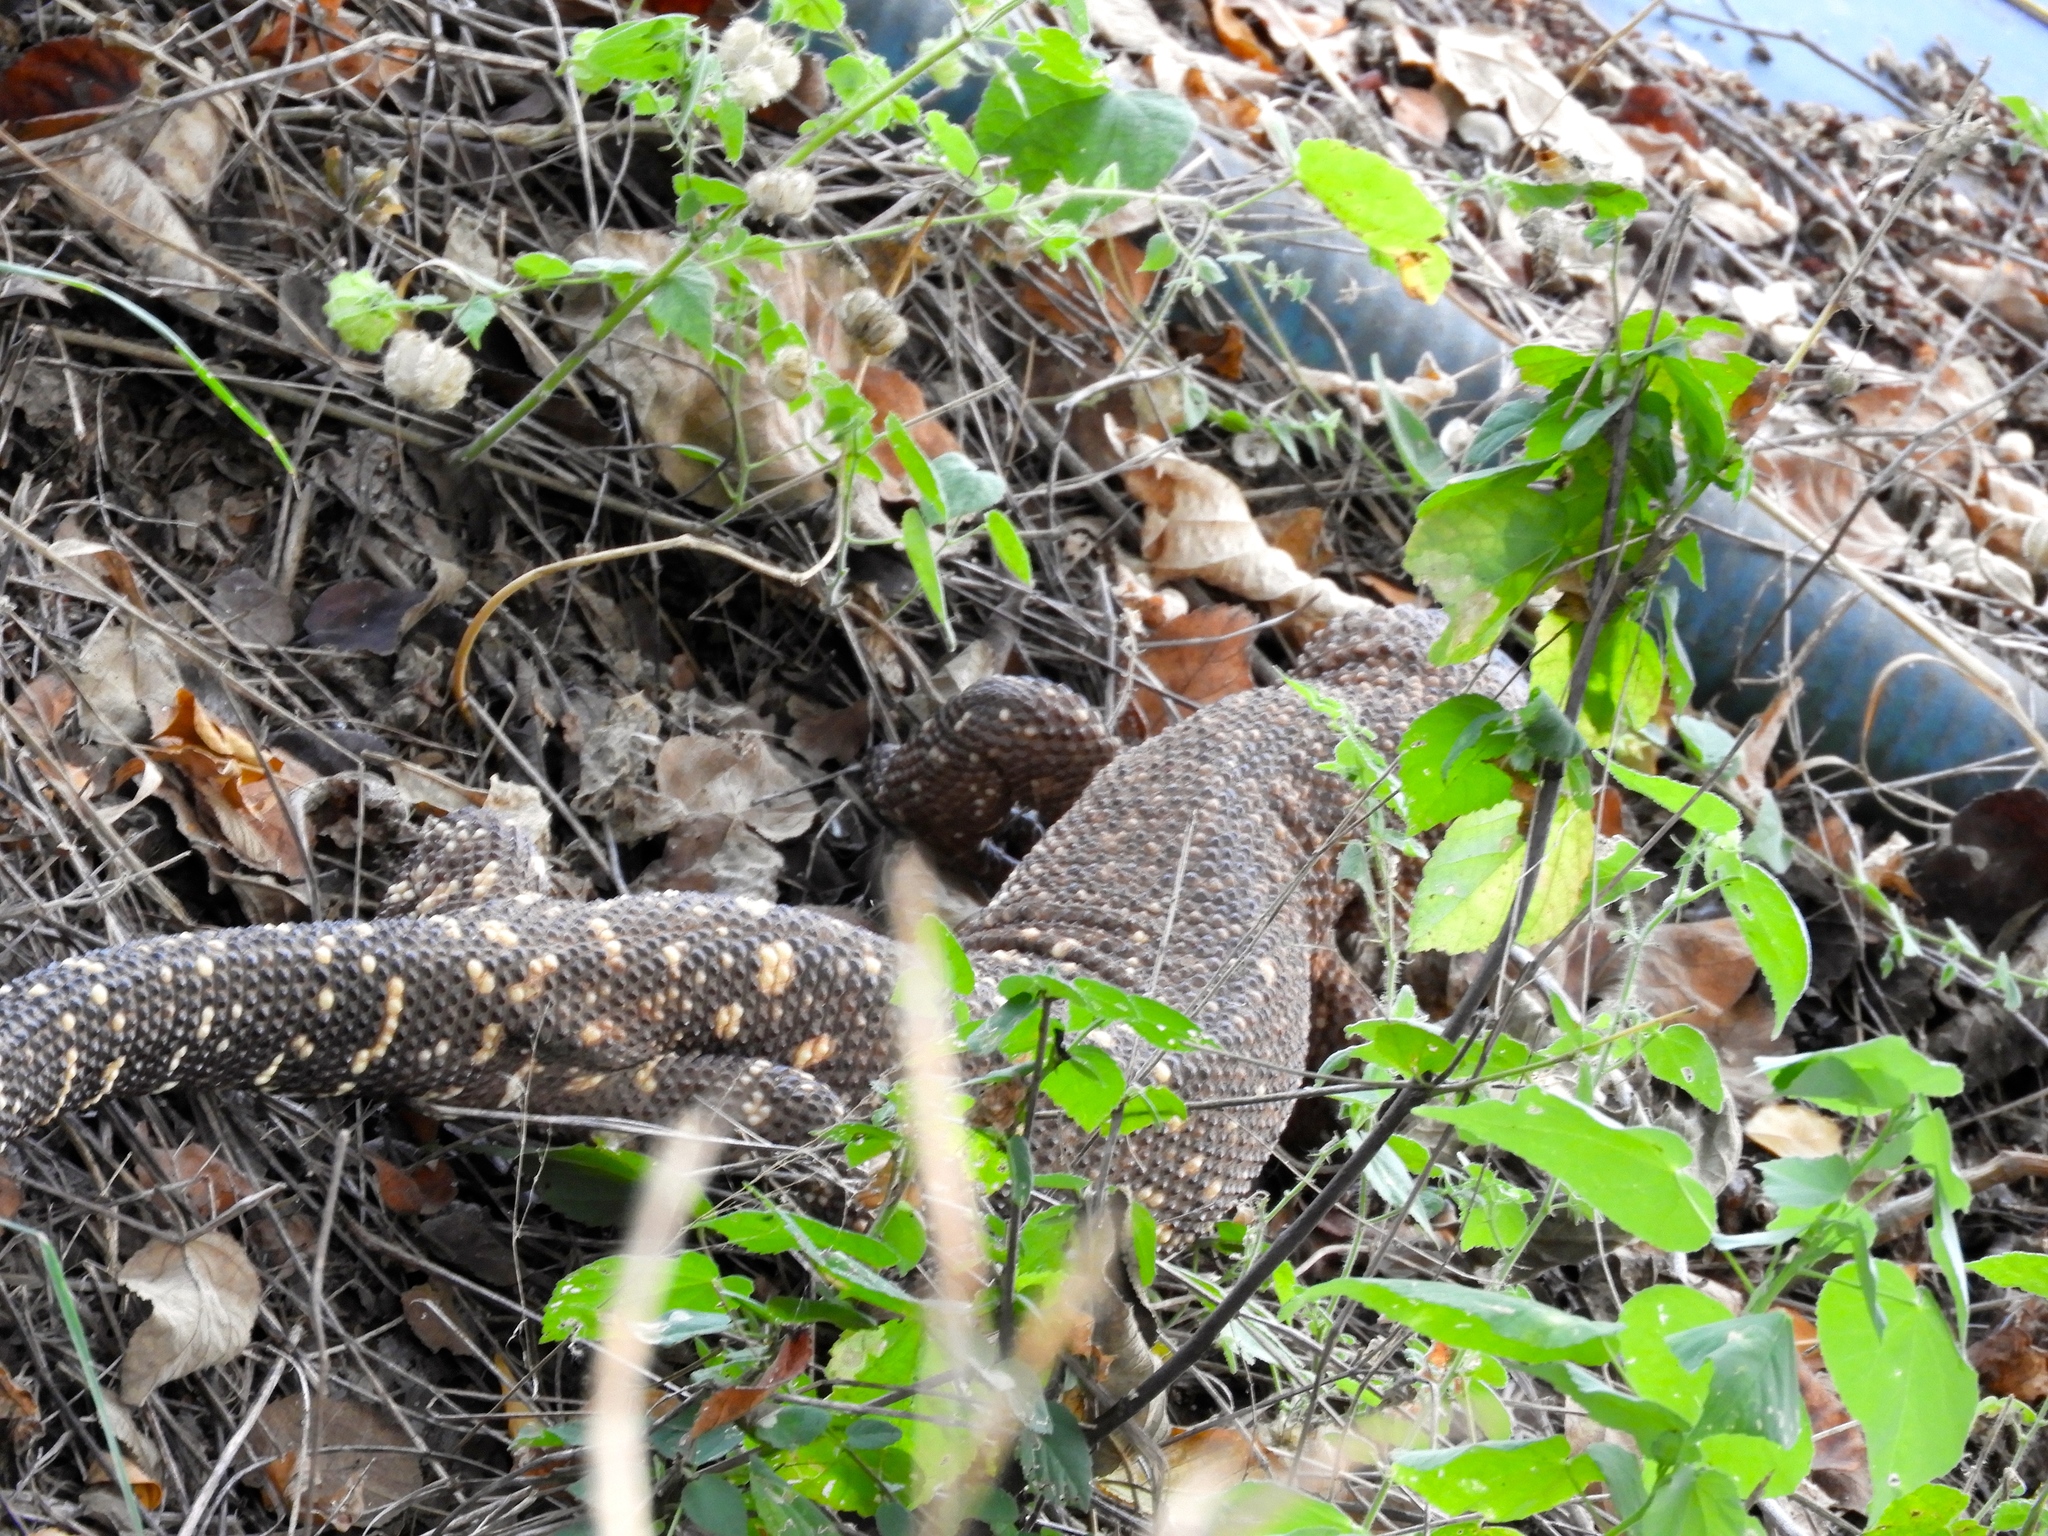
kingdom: Animalia
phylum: Chordata
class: Squamata
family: Helodermatidae
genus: Heloderma
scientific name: Heloderma horridum
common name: Mexican beaded lizard
